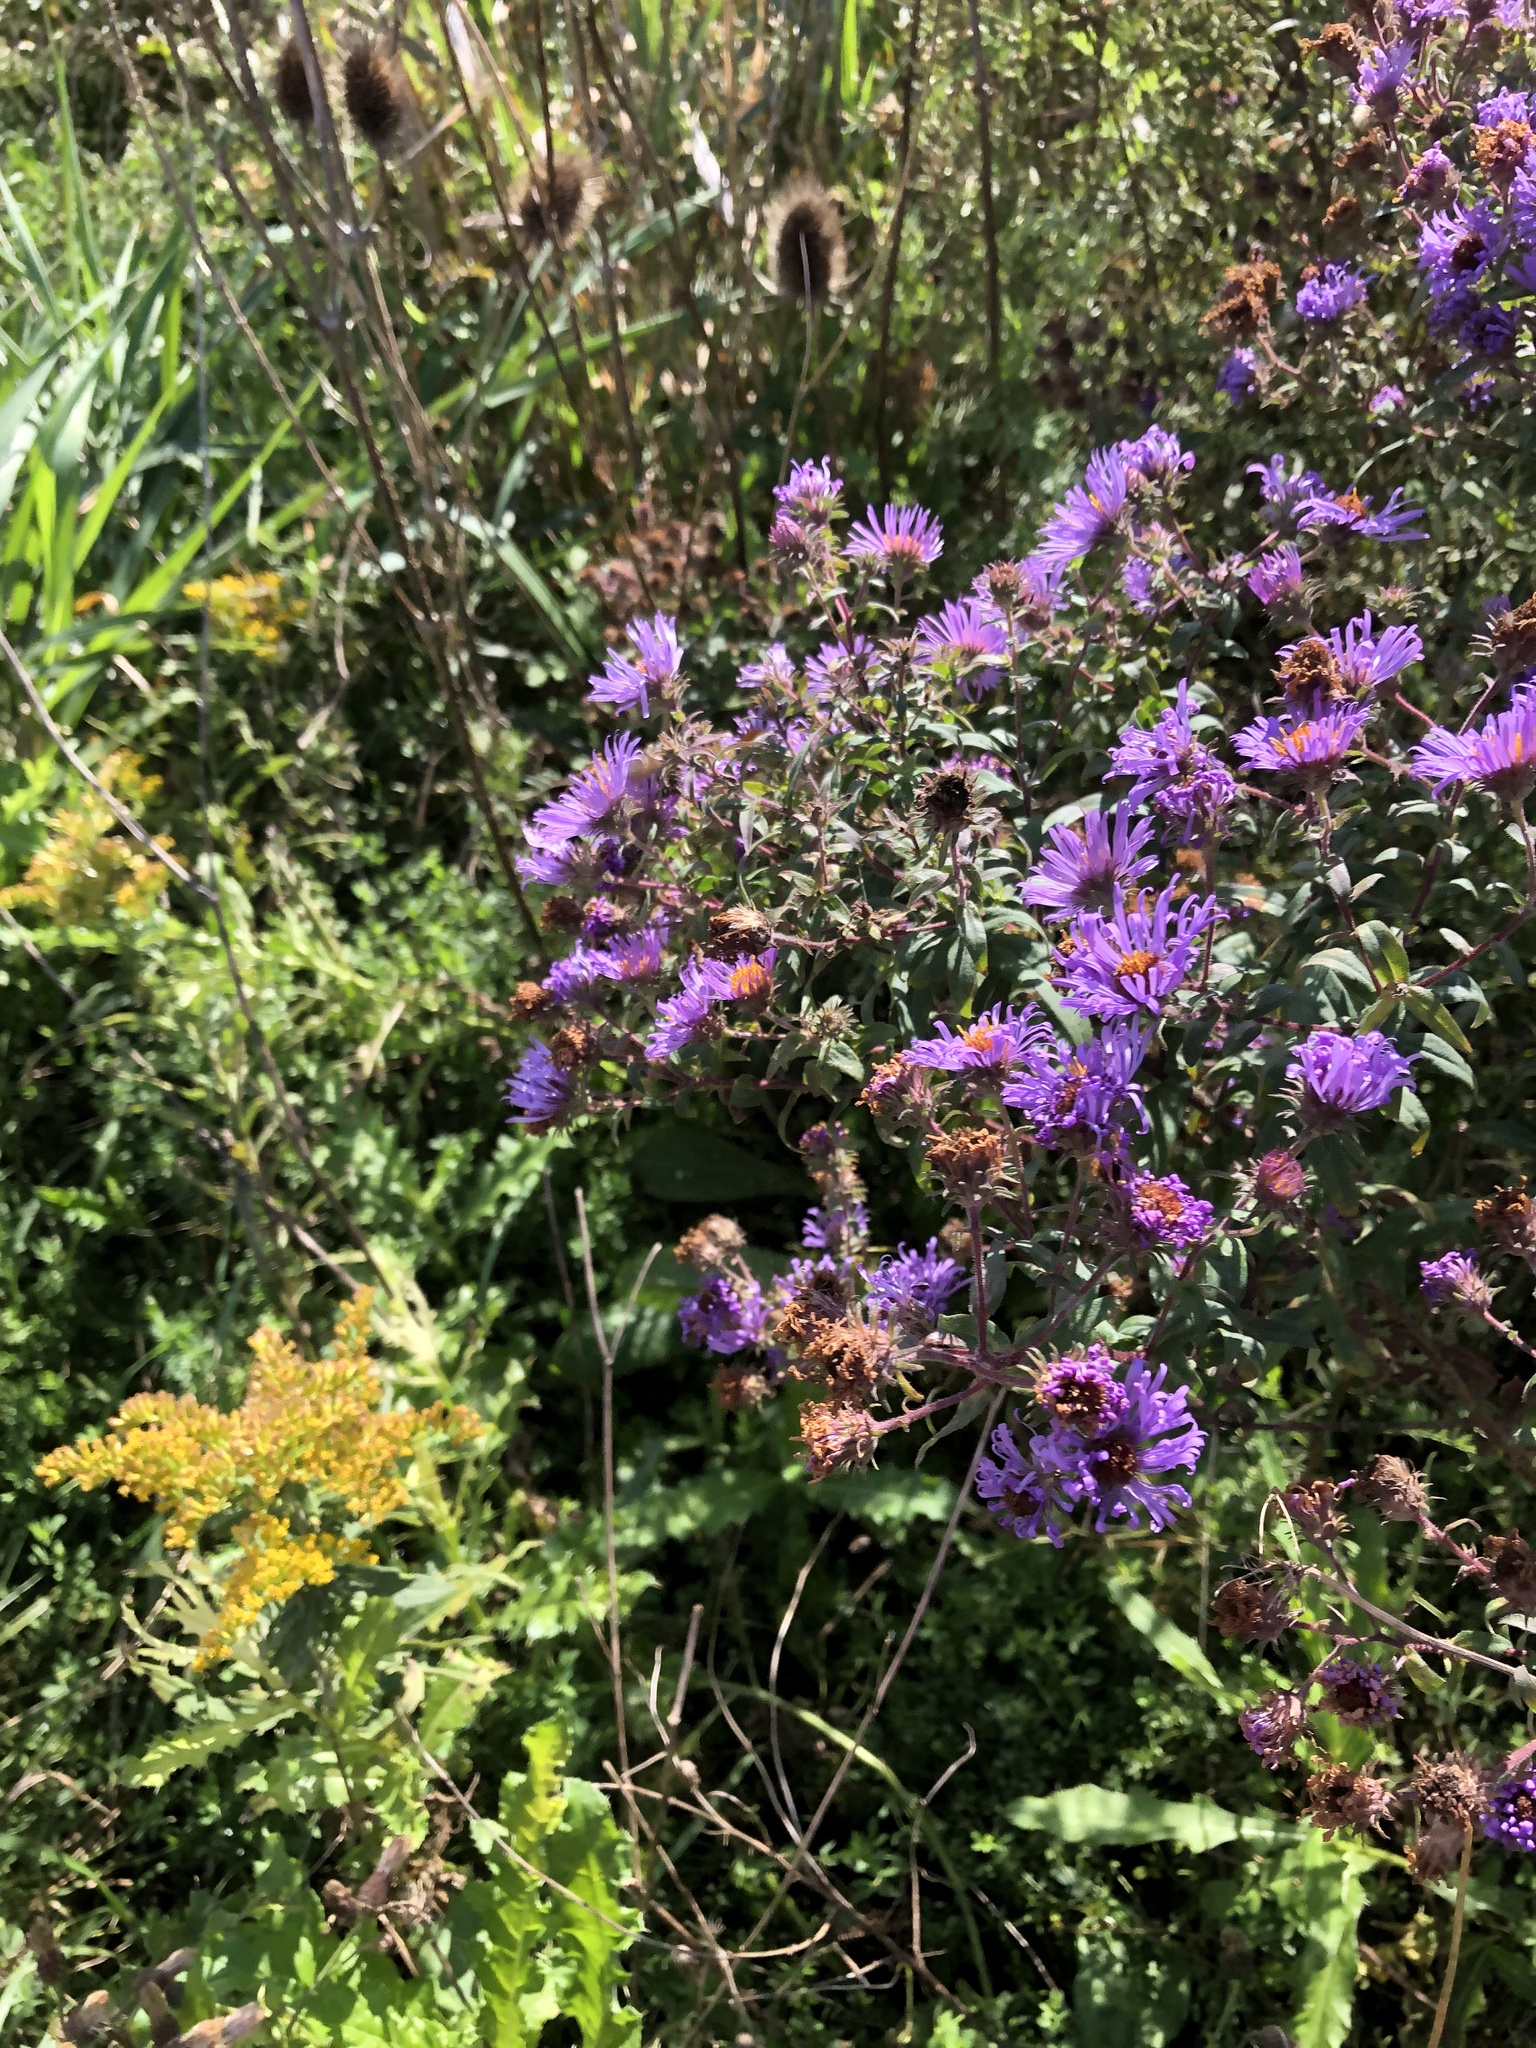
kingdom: Plantae
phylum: Tracheophyta
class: Magnoliopsida
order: Asterales
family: Asteraceae
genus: Symphyotrichum
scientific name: Symphyotrichum novae-angliae
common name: Michaelmas daisy
